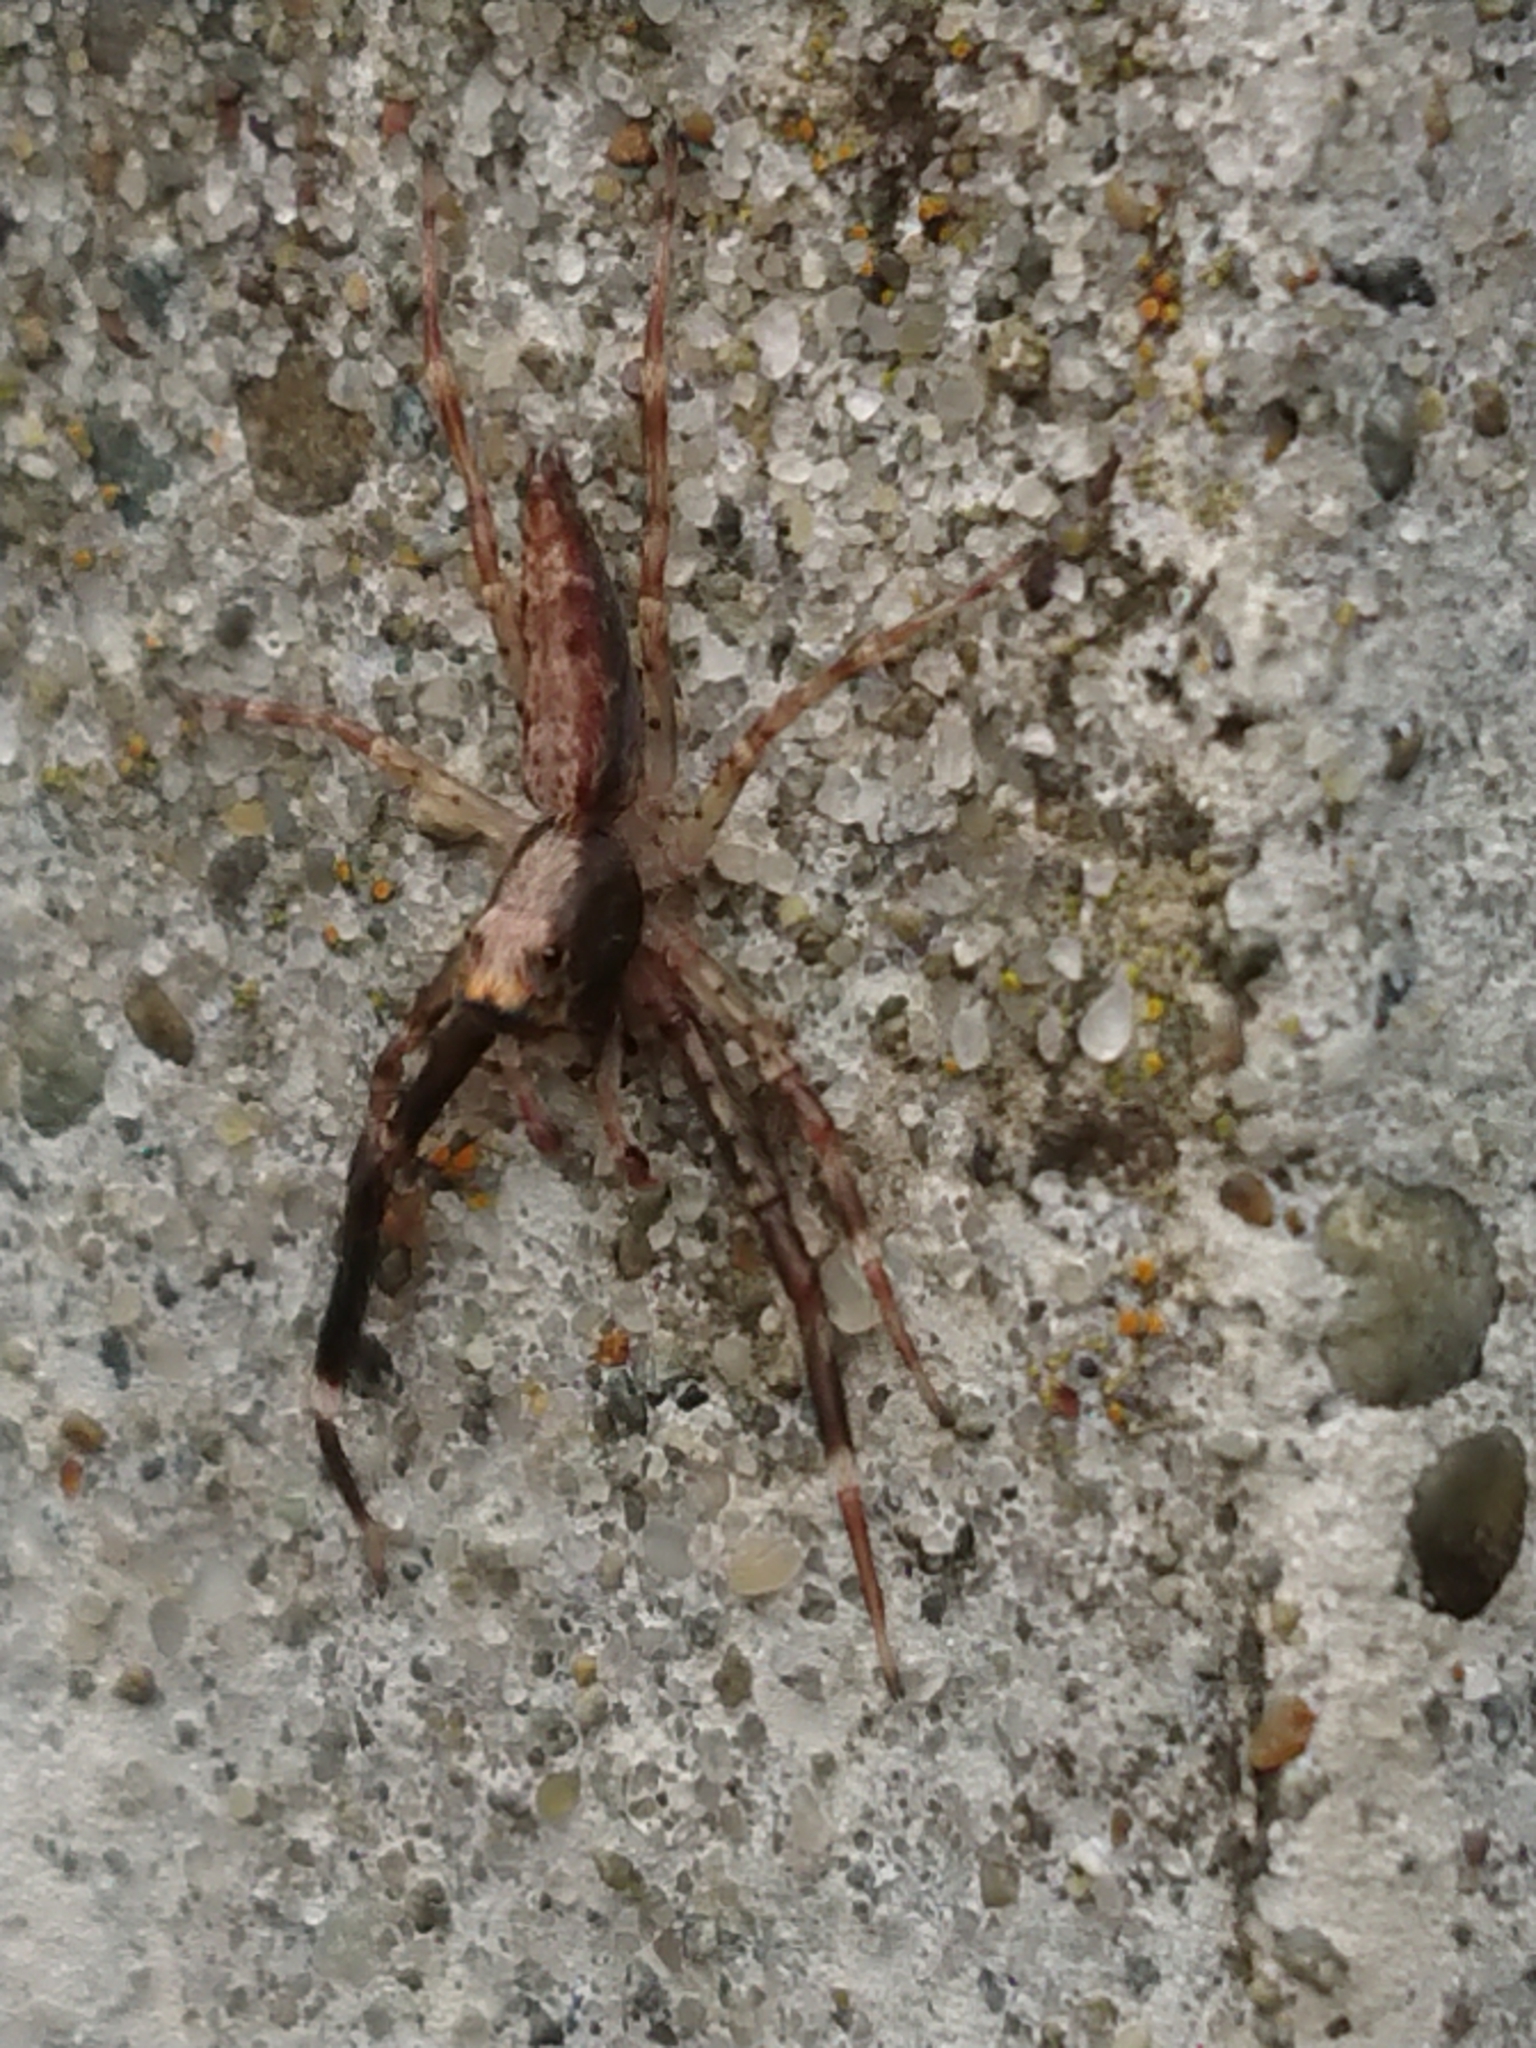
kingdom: Animalia
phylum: Arthropoda
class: Arachnida
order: Araneae
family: Salticidae
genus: Helpis
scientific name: Helpis minitabunda
